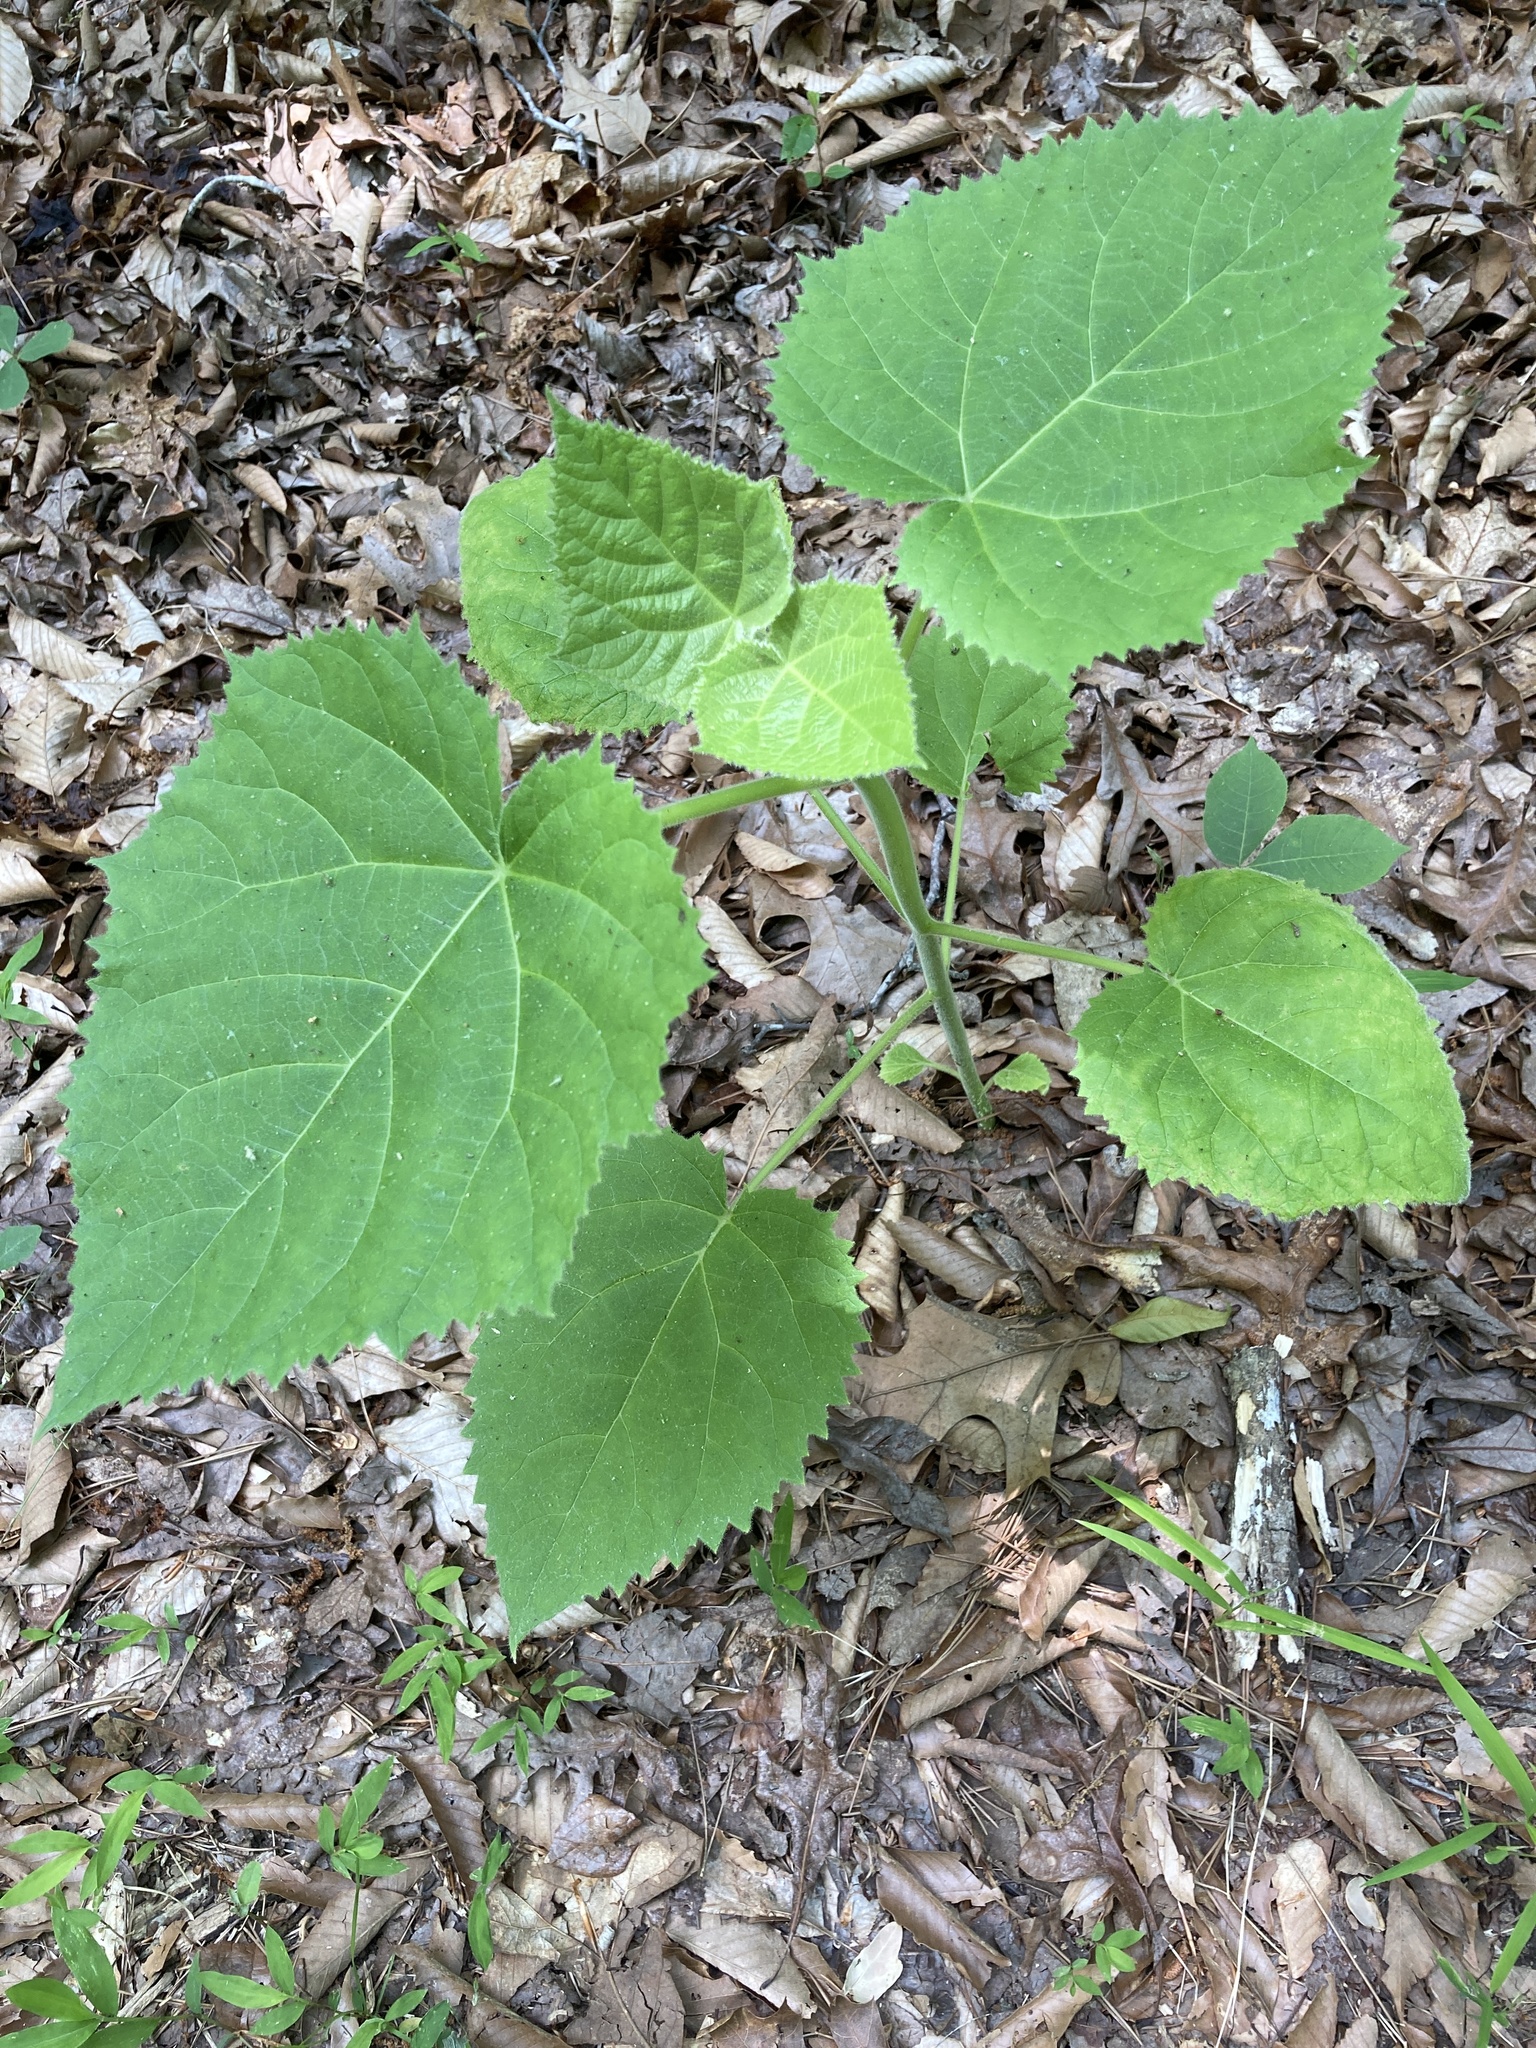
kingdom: Plantae
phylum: Tracheophyta
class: Magnoliopsida
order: Lamiales
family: Paulowniaceae
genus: Paulownia
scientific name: Paulownia tomentosa
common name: Foxglove-tree
